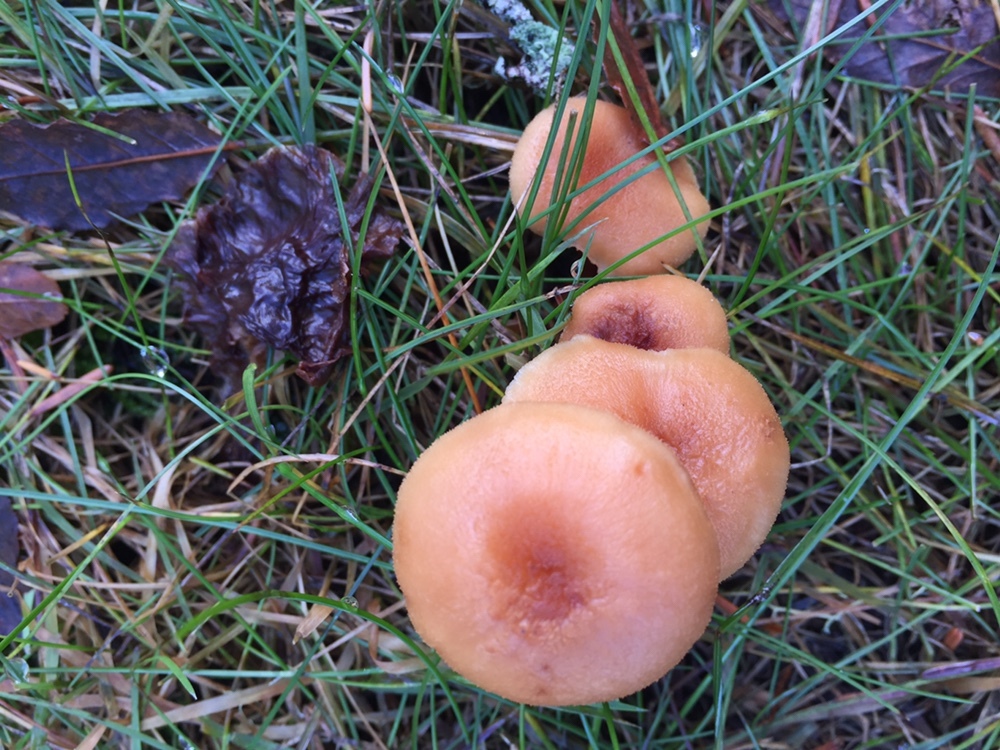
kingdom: Fungi
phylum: Basidiomycota
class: Agaricomycetes
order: Agaricales
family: Hydnangiaceae
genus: Laccaria
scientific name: Laccaria laccata
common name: Deceiver
